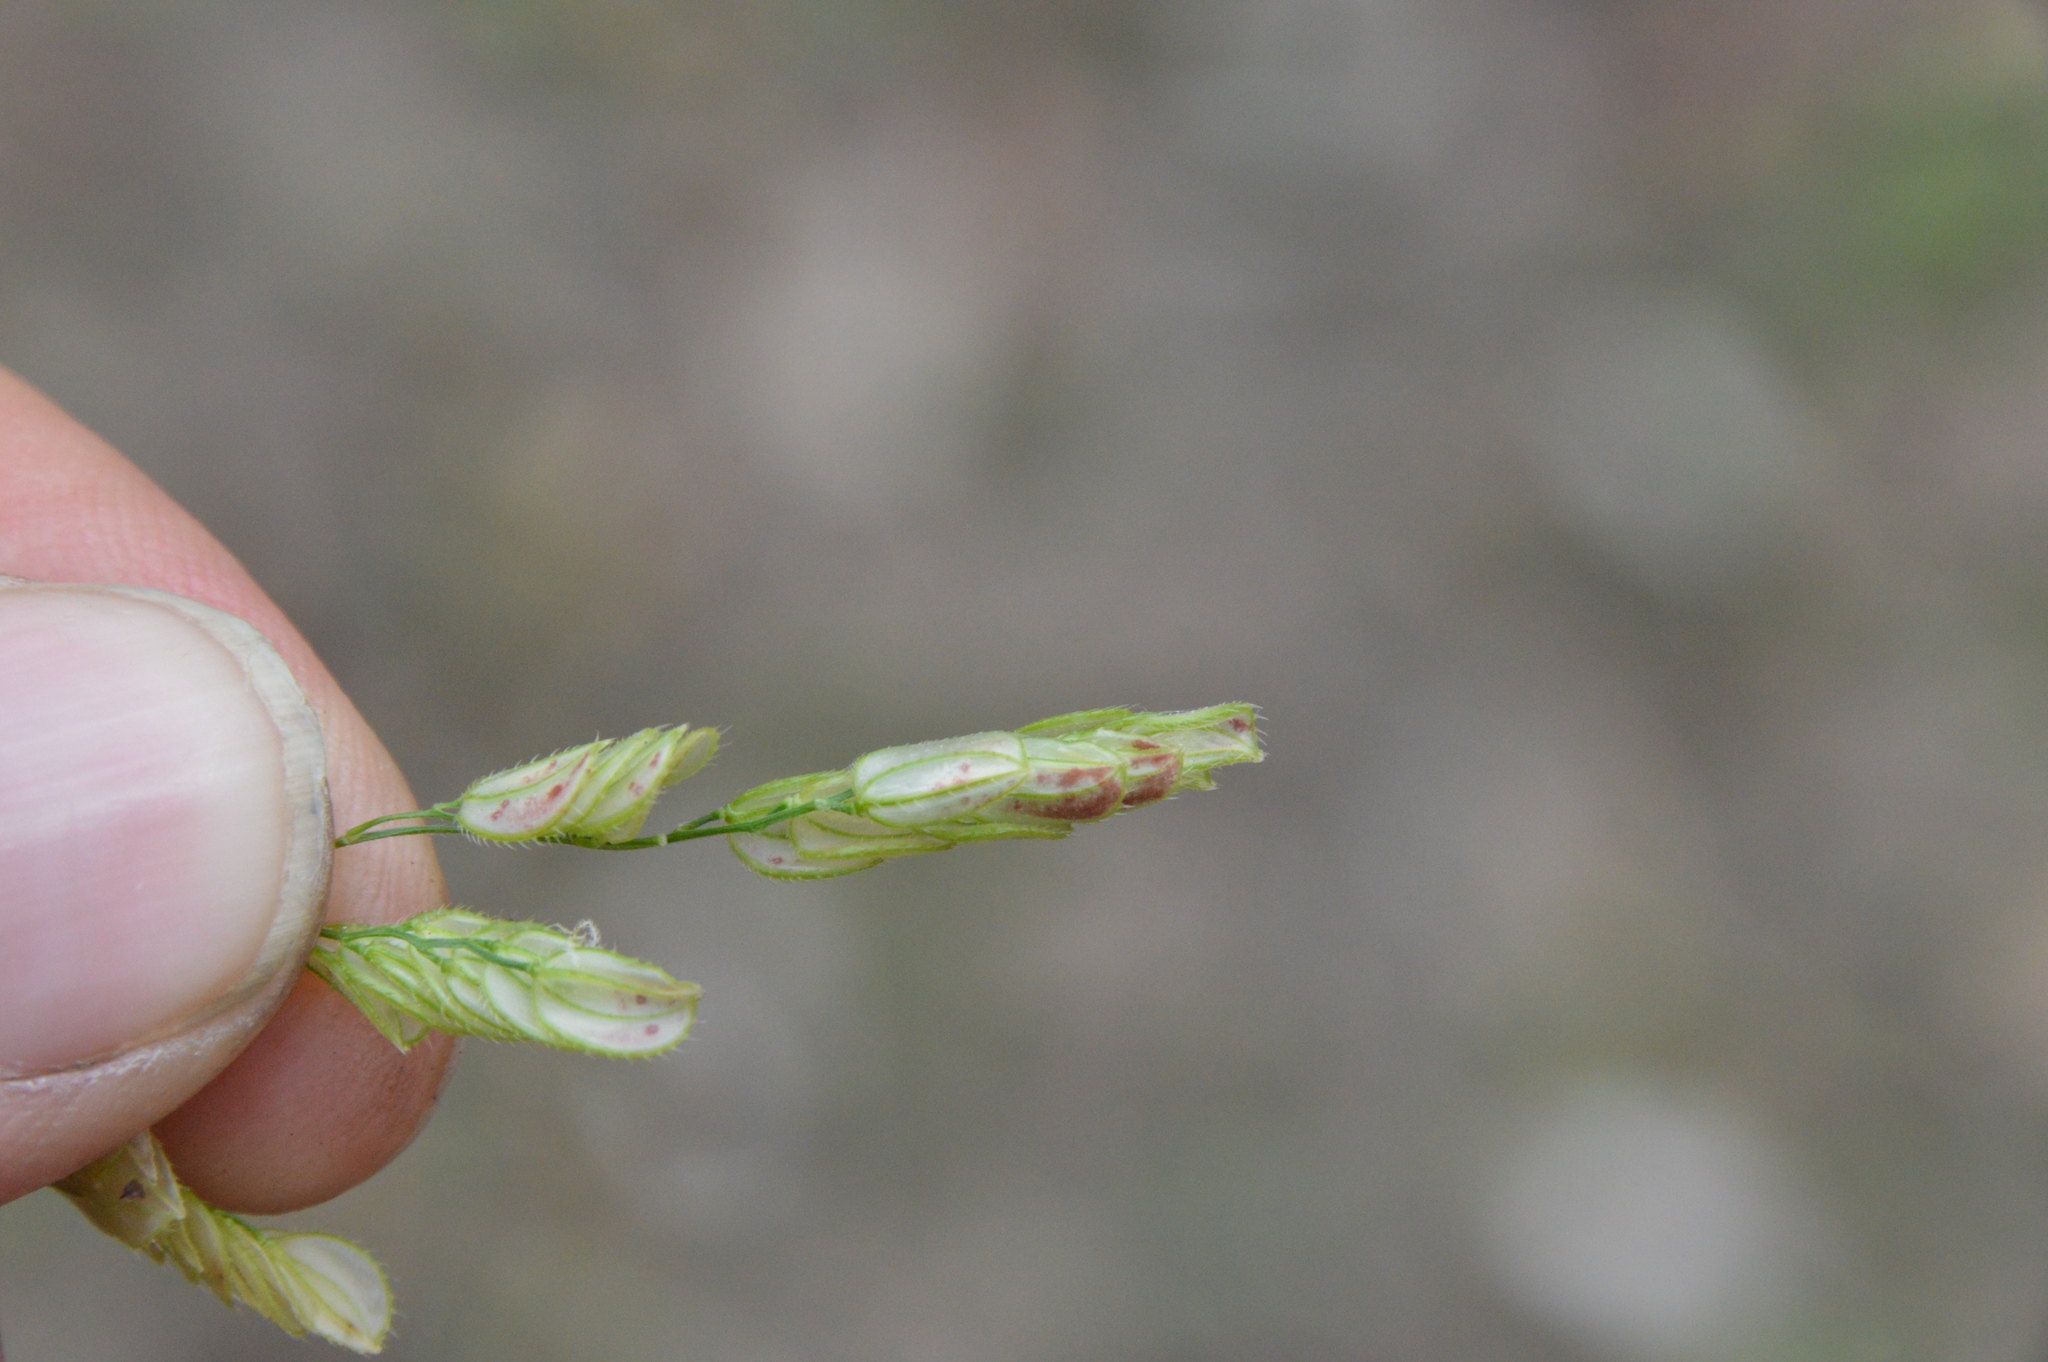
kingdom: Plantae
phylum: Tracheophyta
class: Liliopsida
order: Poales
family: Poaceae
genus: Leersia
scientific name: Leersia lenticularis
